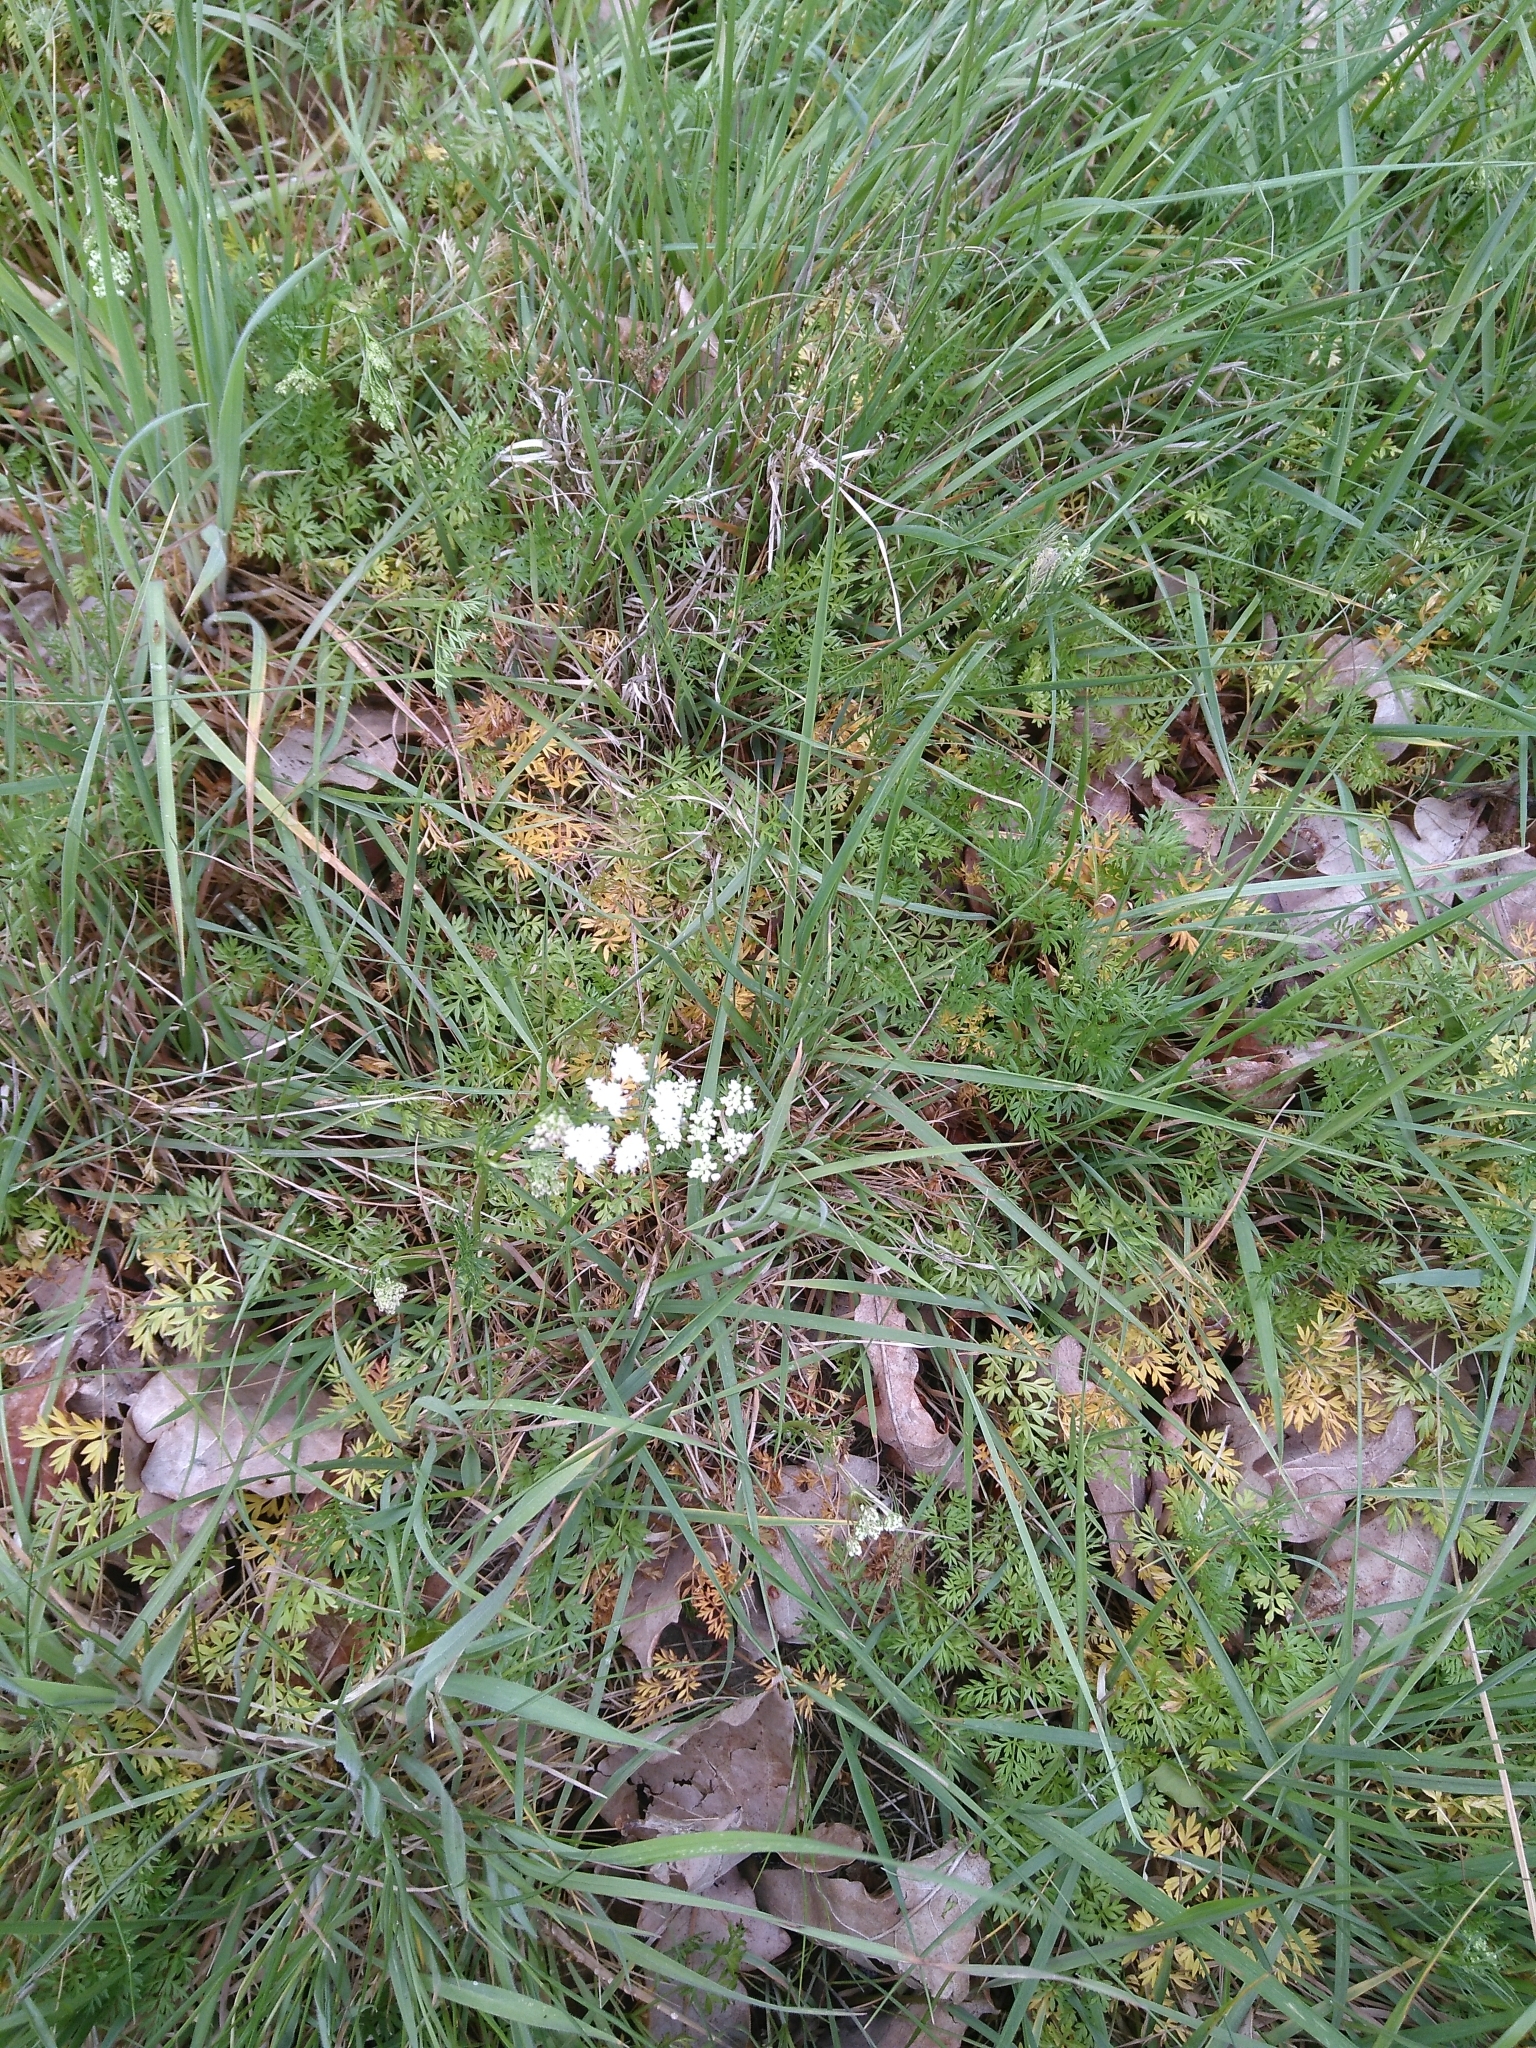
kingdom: Plantae
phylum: Tracheophyta
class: Magnoliopsida
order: Apiales
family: Apiaceae
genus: Conopodium
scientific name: Conopodium majus
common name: Pignut
